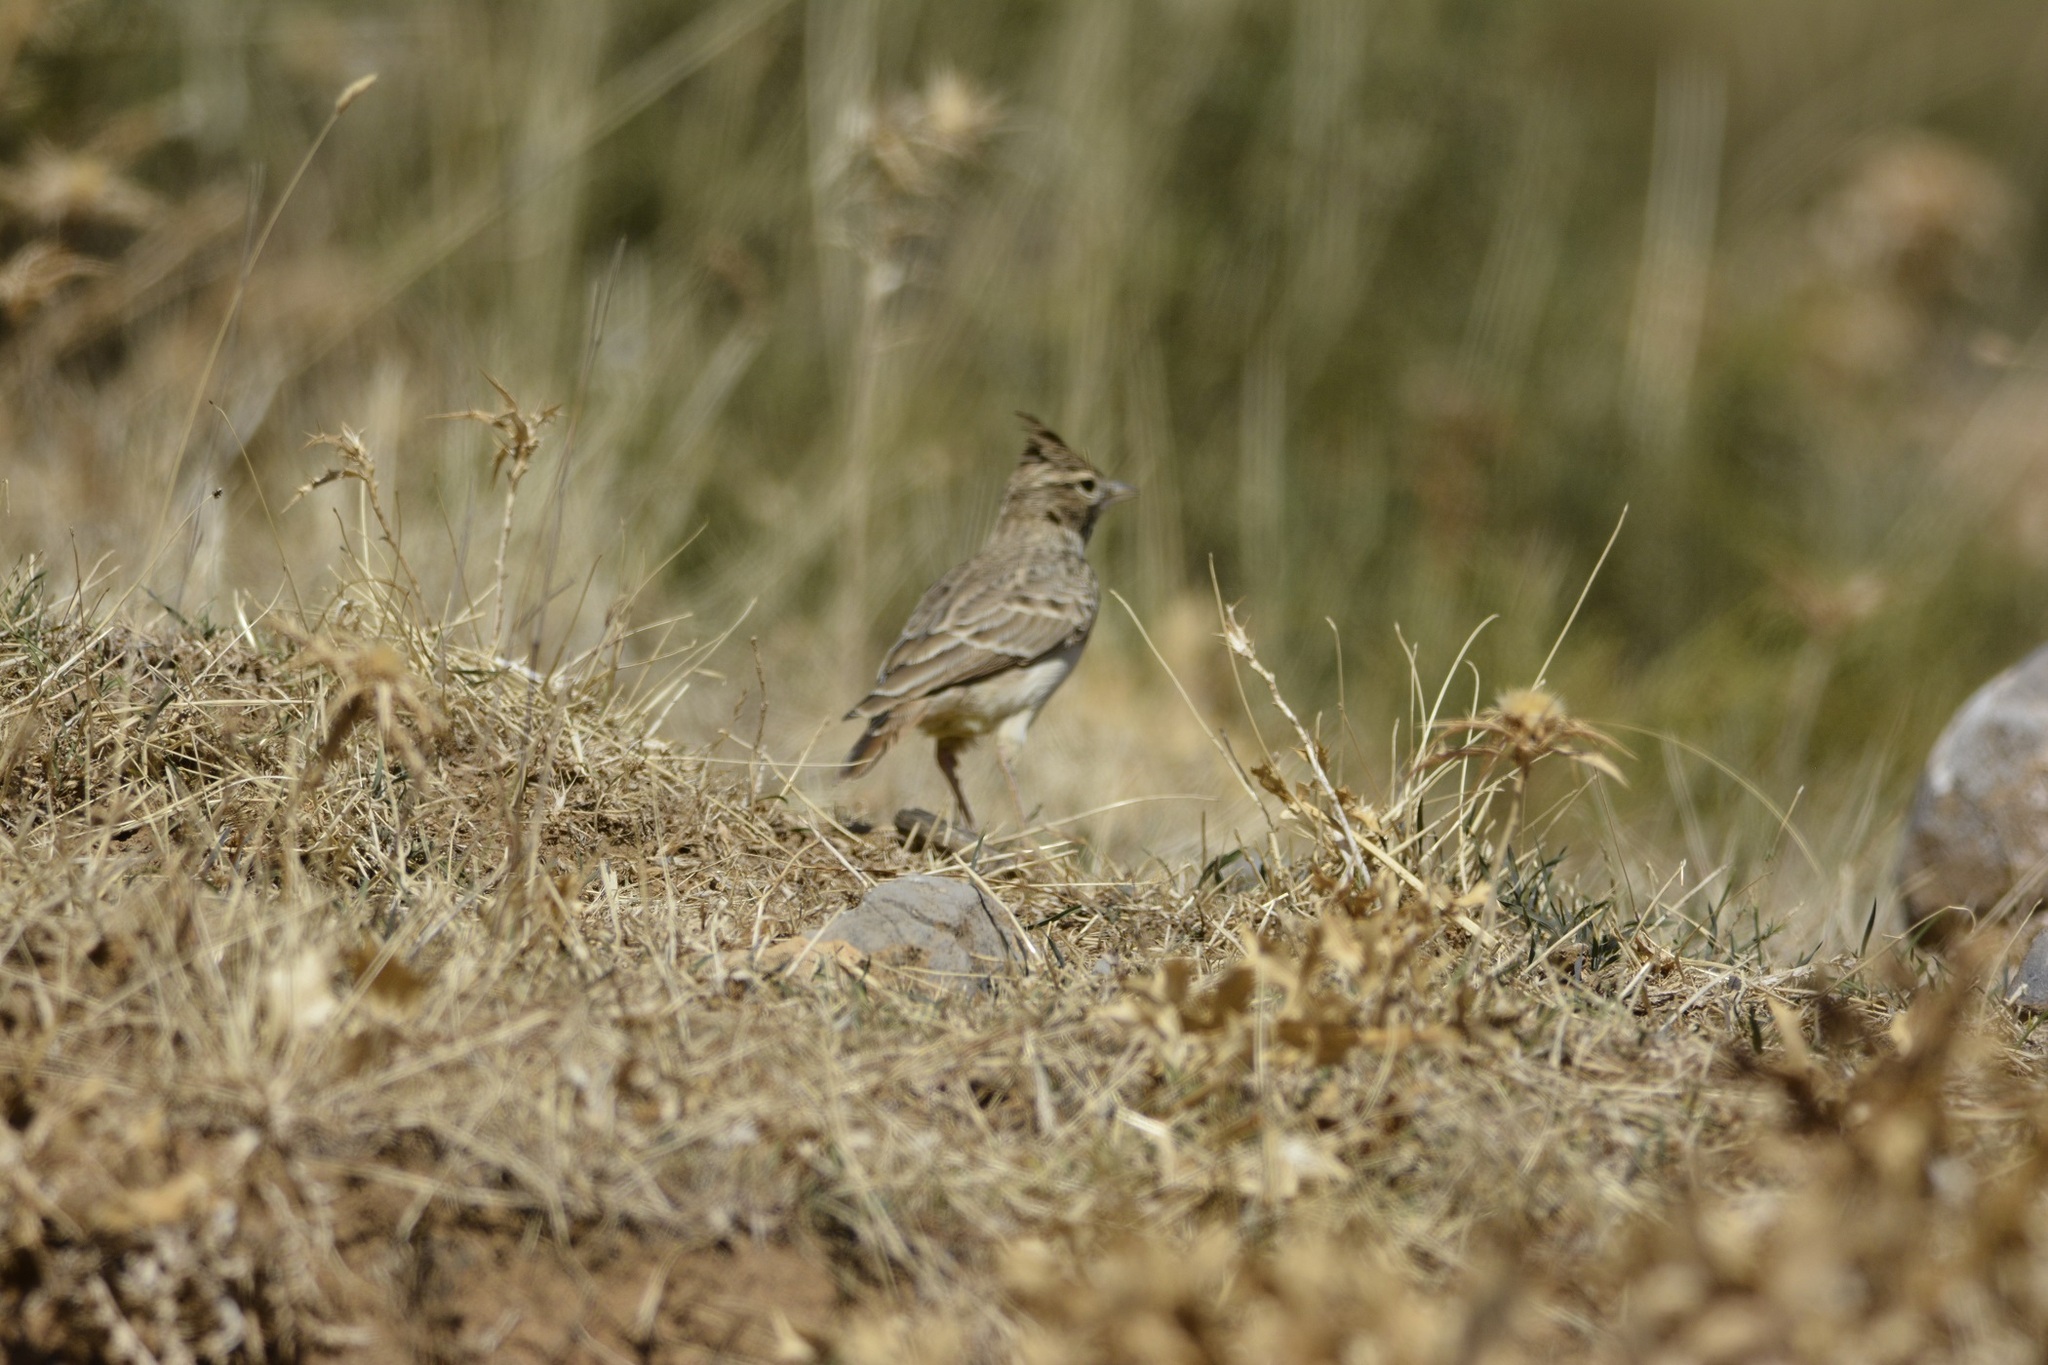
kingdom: Animalia
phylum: Chordata
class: Aves
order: Passeriformes
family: Alaudidae
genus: Galerida
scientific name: Galerida theklae
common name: Thekla lark
